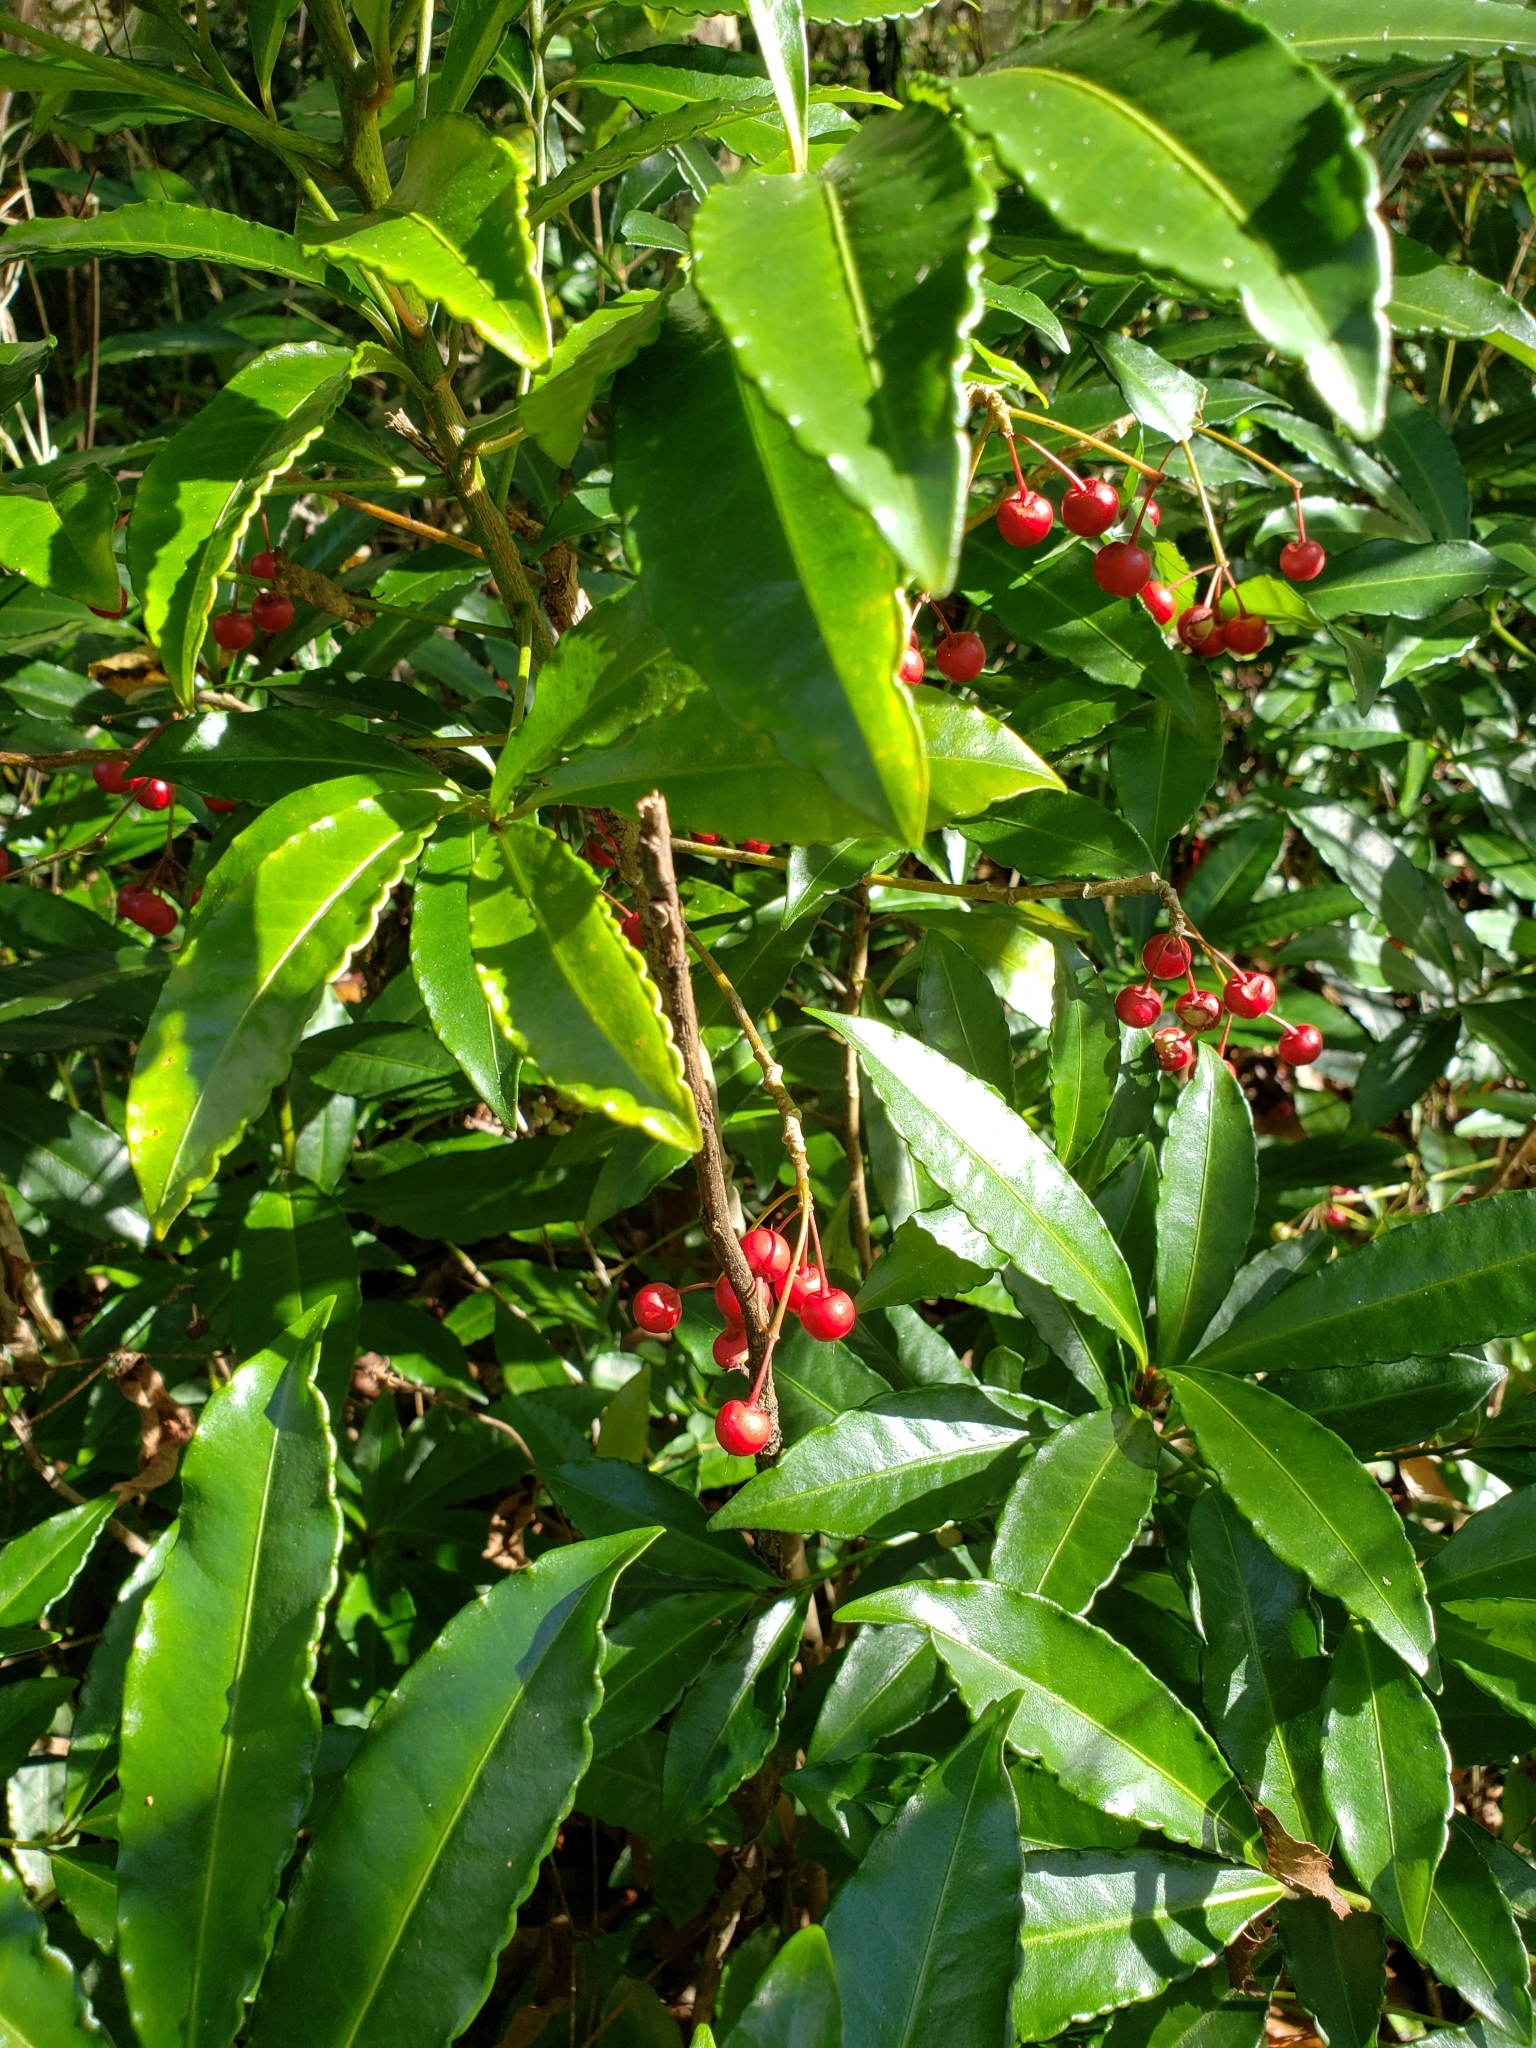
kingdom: Plantae
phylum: Tracheophyta
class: Magnoliopsida
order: Ericales
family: Primulaceae
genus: Ardisia
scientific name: Ardisia crenata
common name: Hen's eyes
